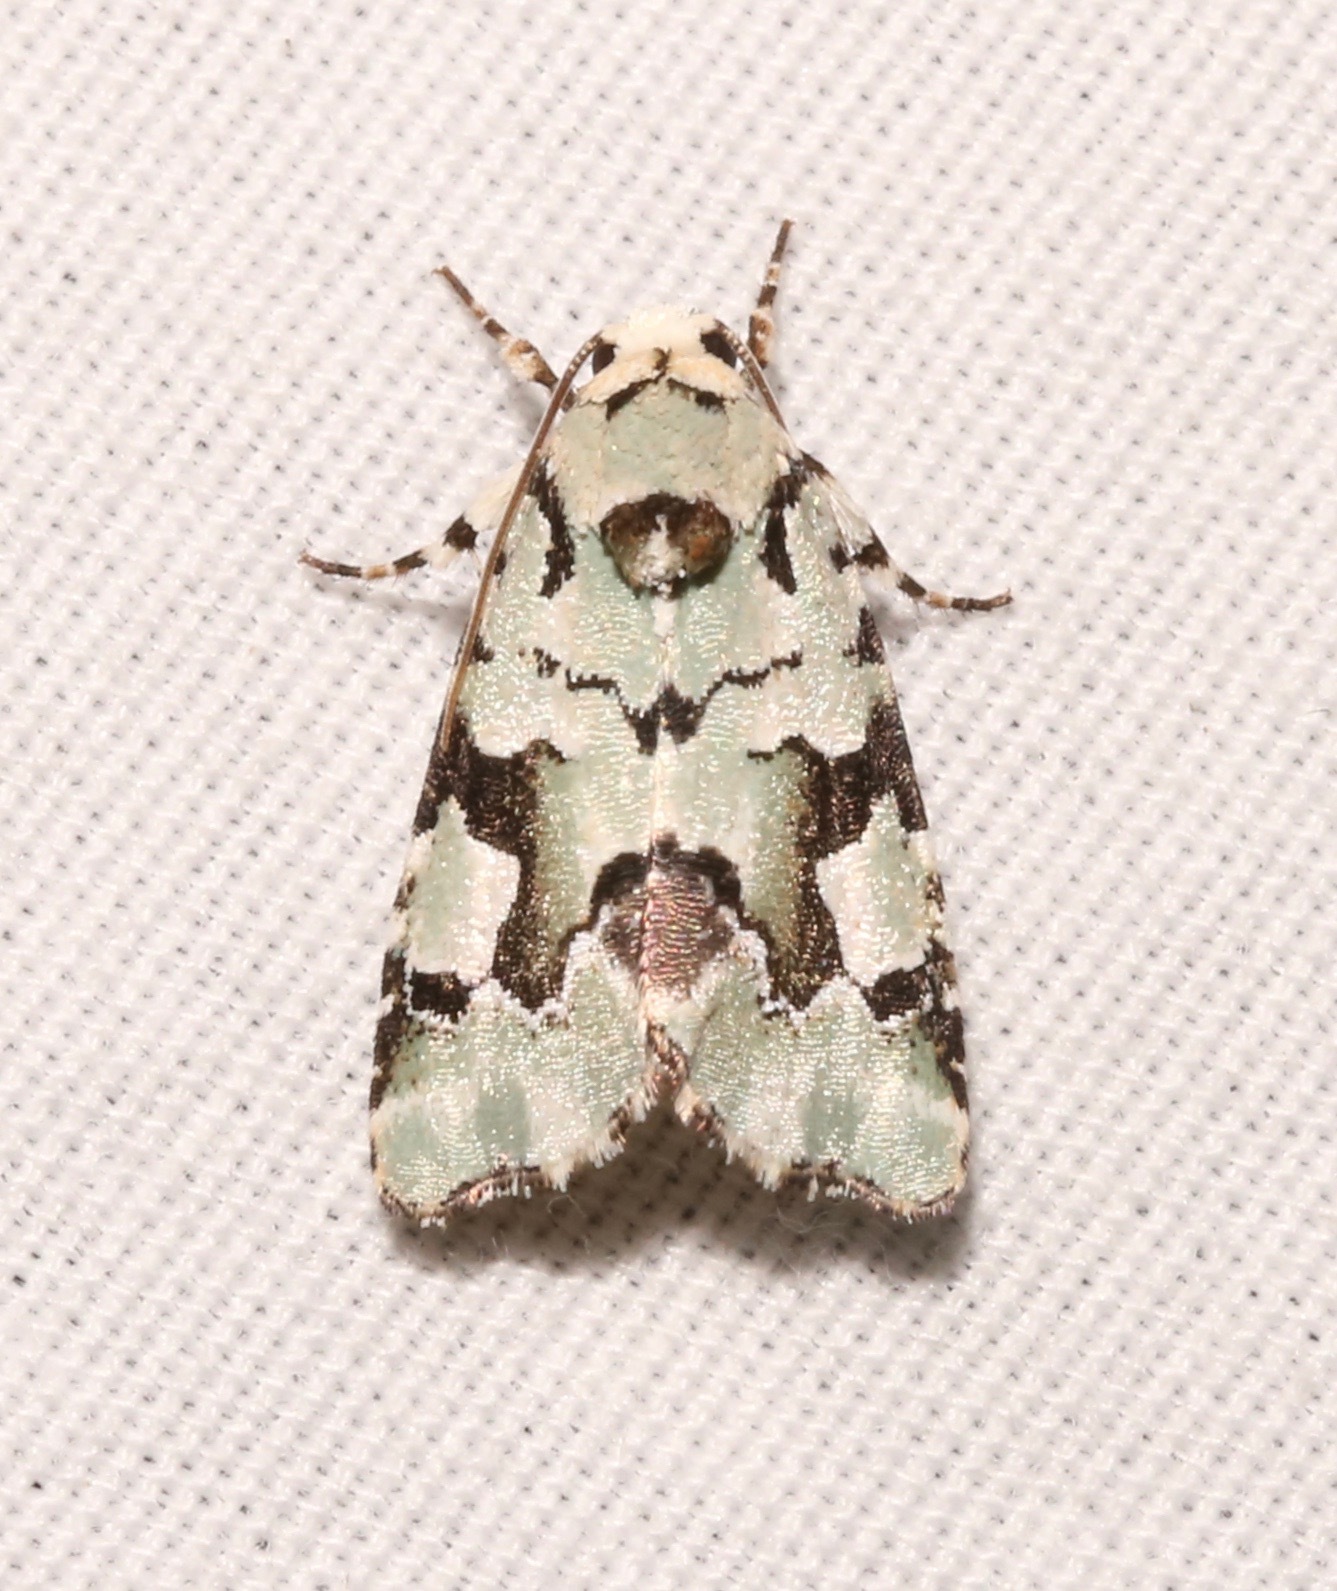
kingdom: Animalia
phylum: Arthropoda
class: Insecta
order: Lepidoptera
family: Noctuidae
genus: Emarginea
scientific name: Emarginea percara
